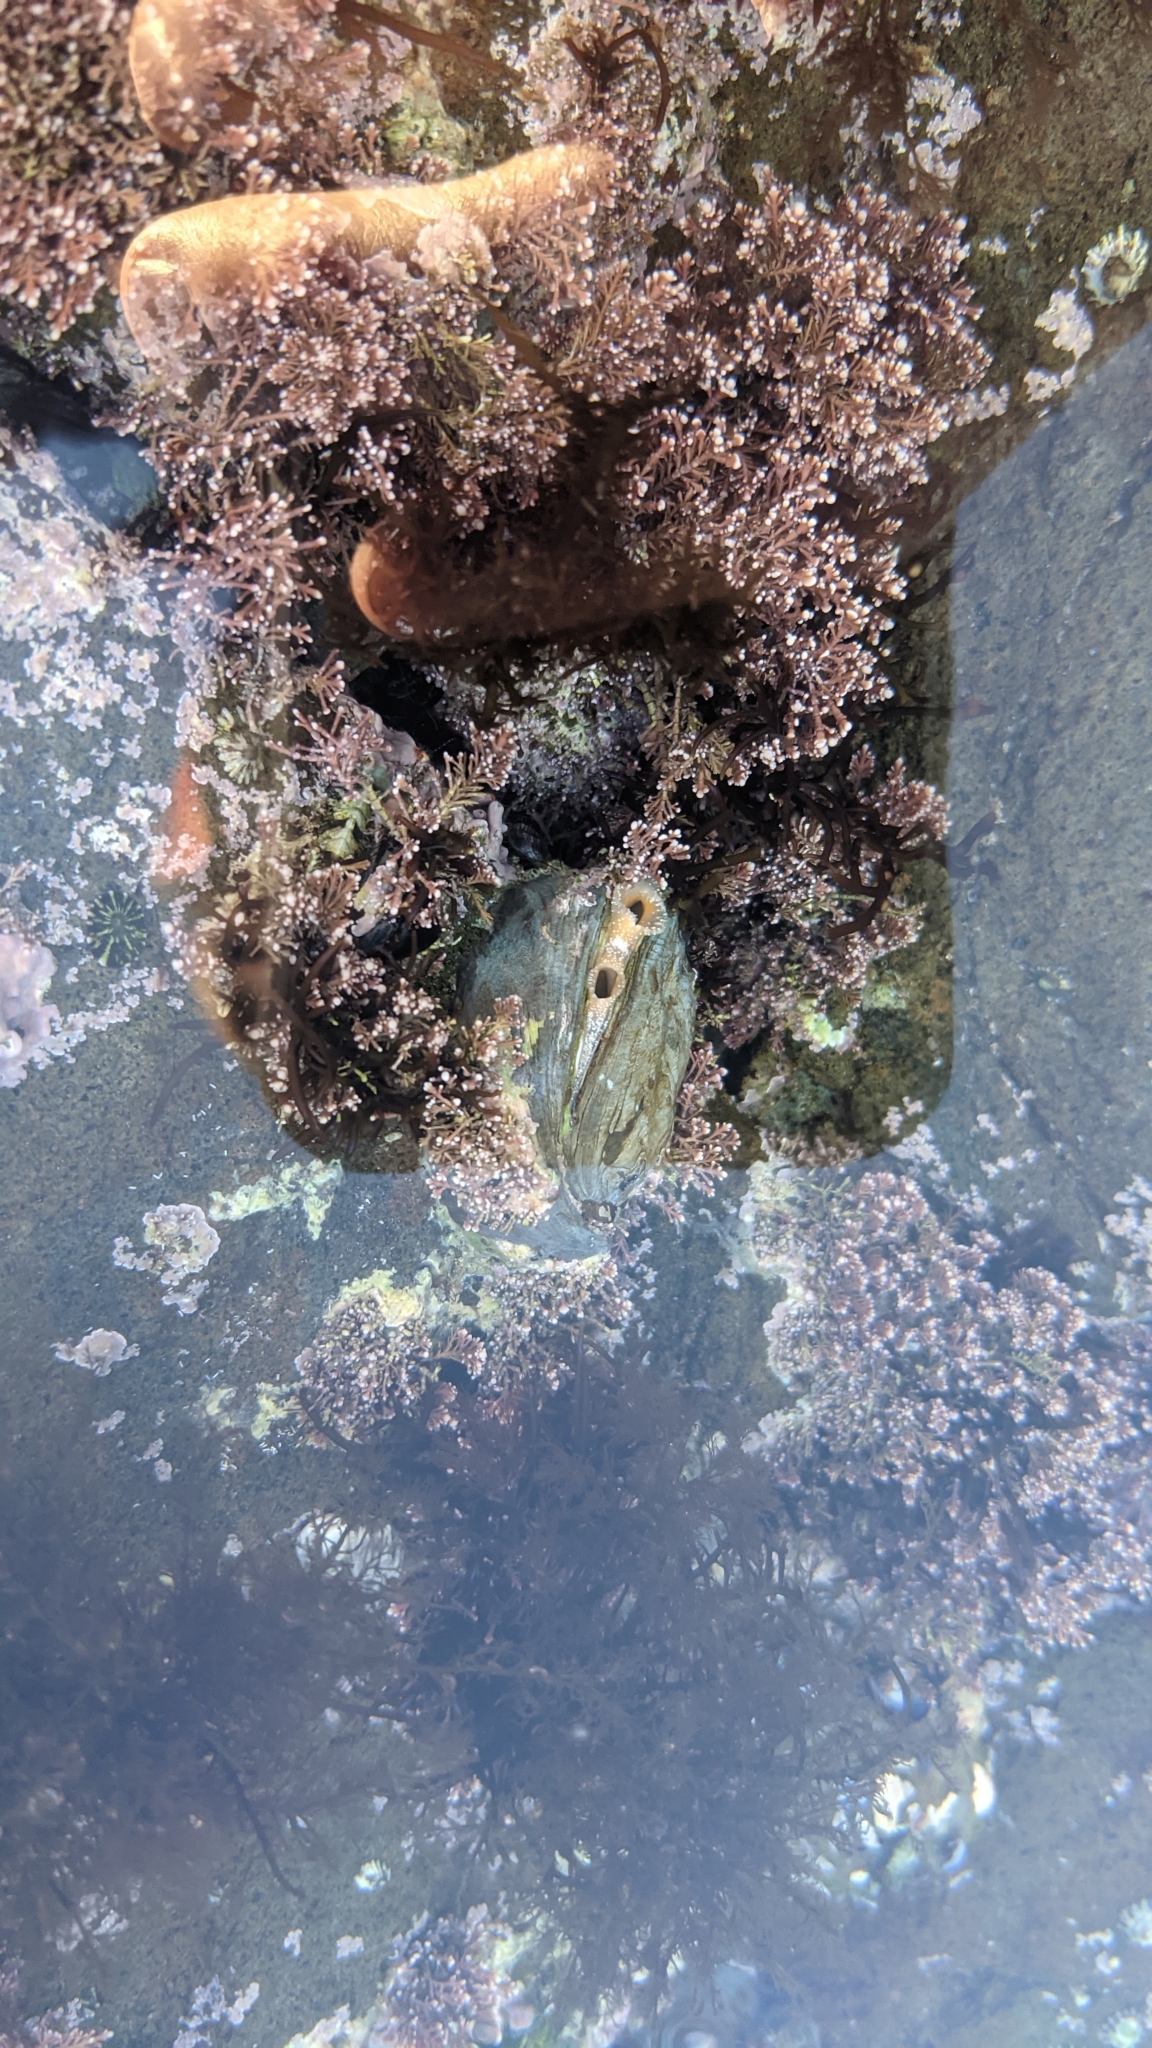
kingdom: Animalia
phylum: Mollusca
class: Bivalvia
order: Venerida
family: Chamidae
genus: Pseudochama
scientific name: Pseudochama exogyra
